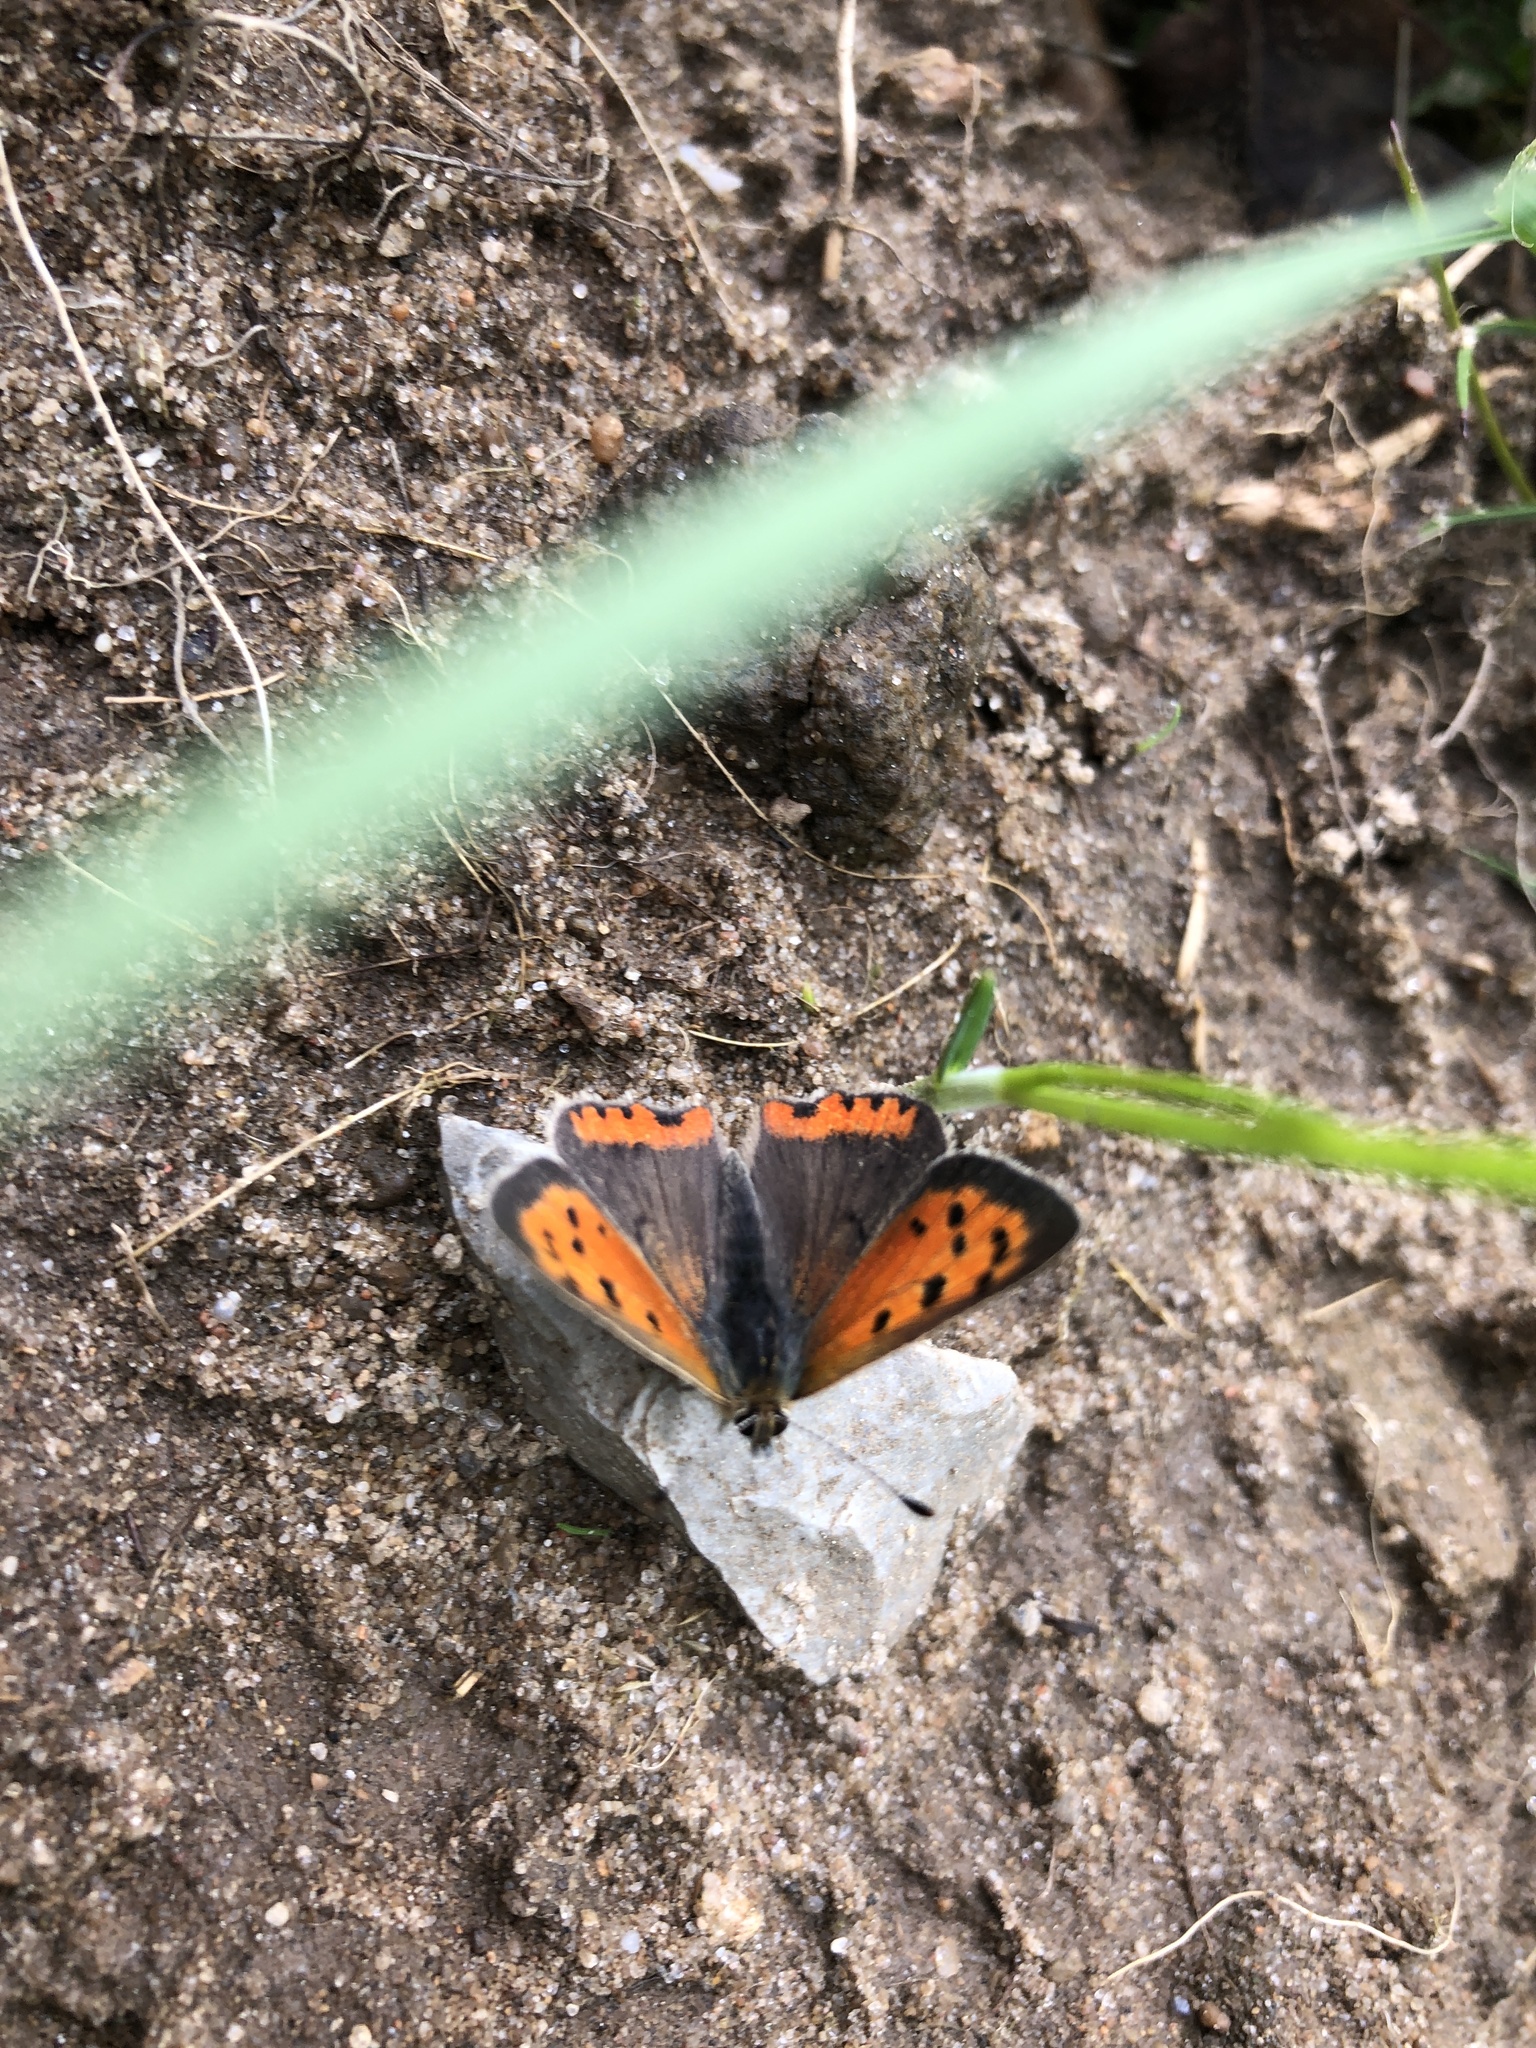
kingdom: Animalia
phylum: Arthropoda
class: Insecta
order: Lepidoptera
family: Lycaenidae
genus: Lycaena
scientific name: Lycaena phlaeas
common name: Small copper
